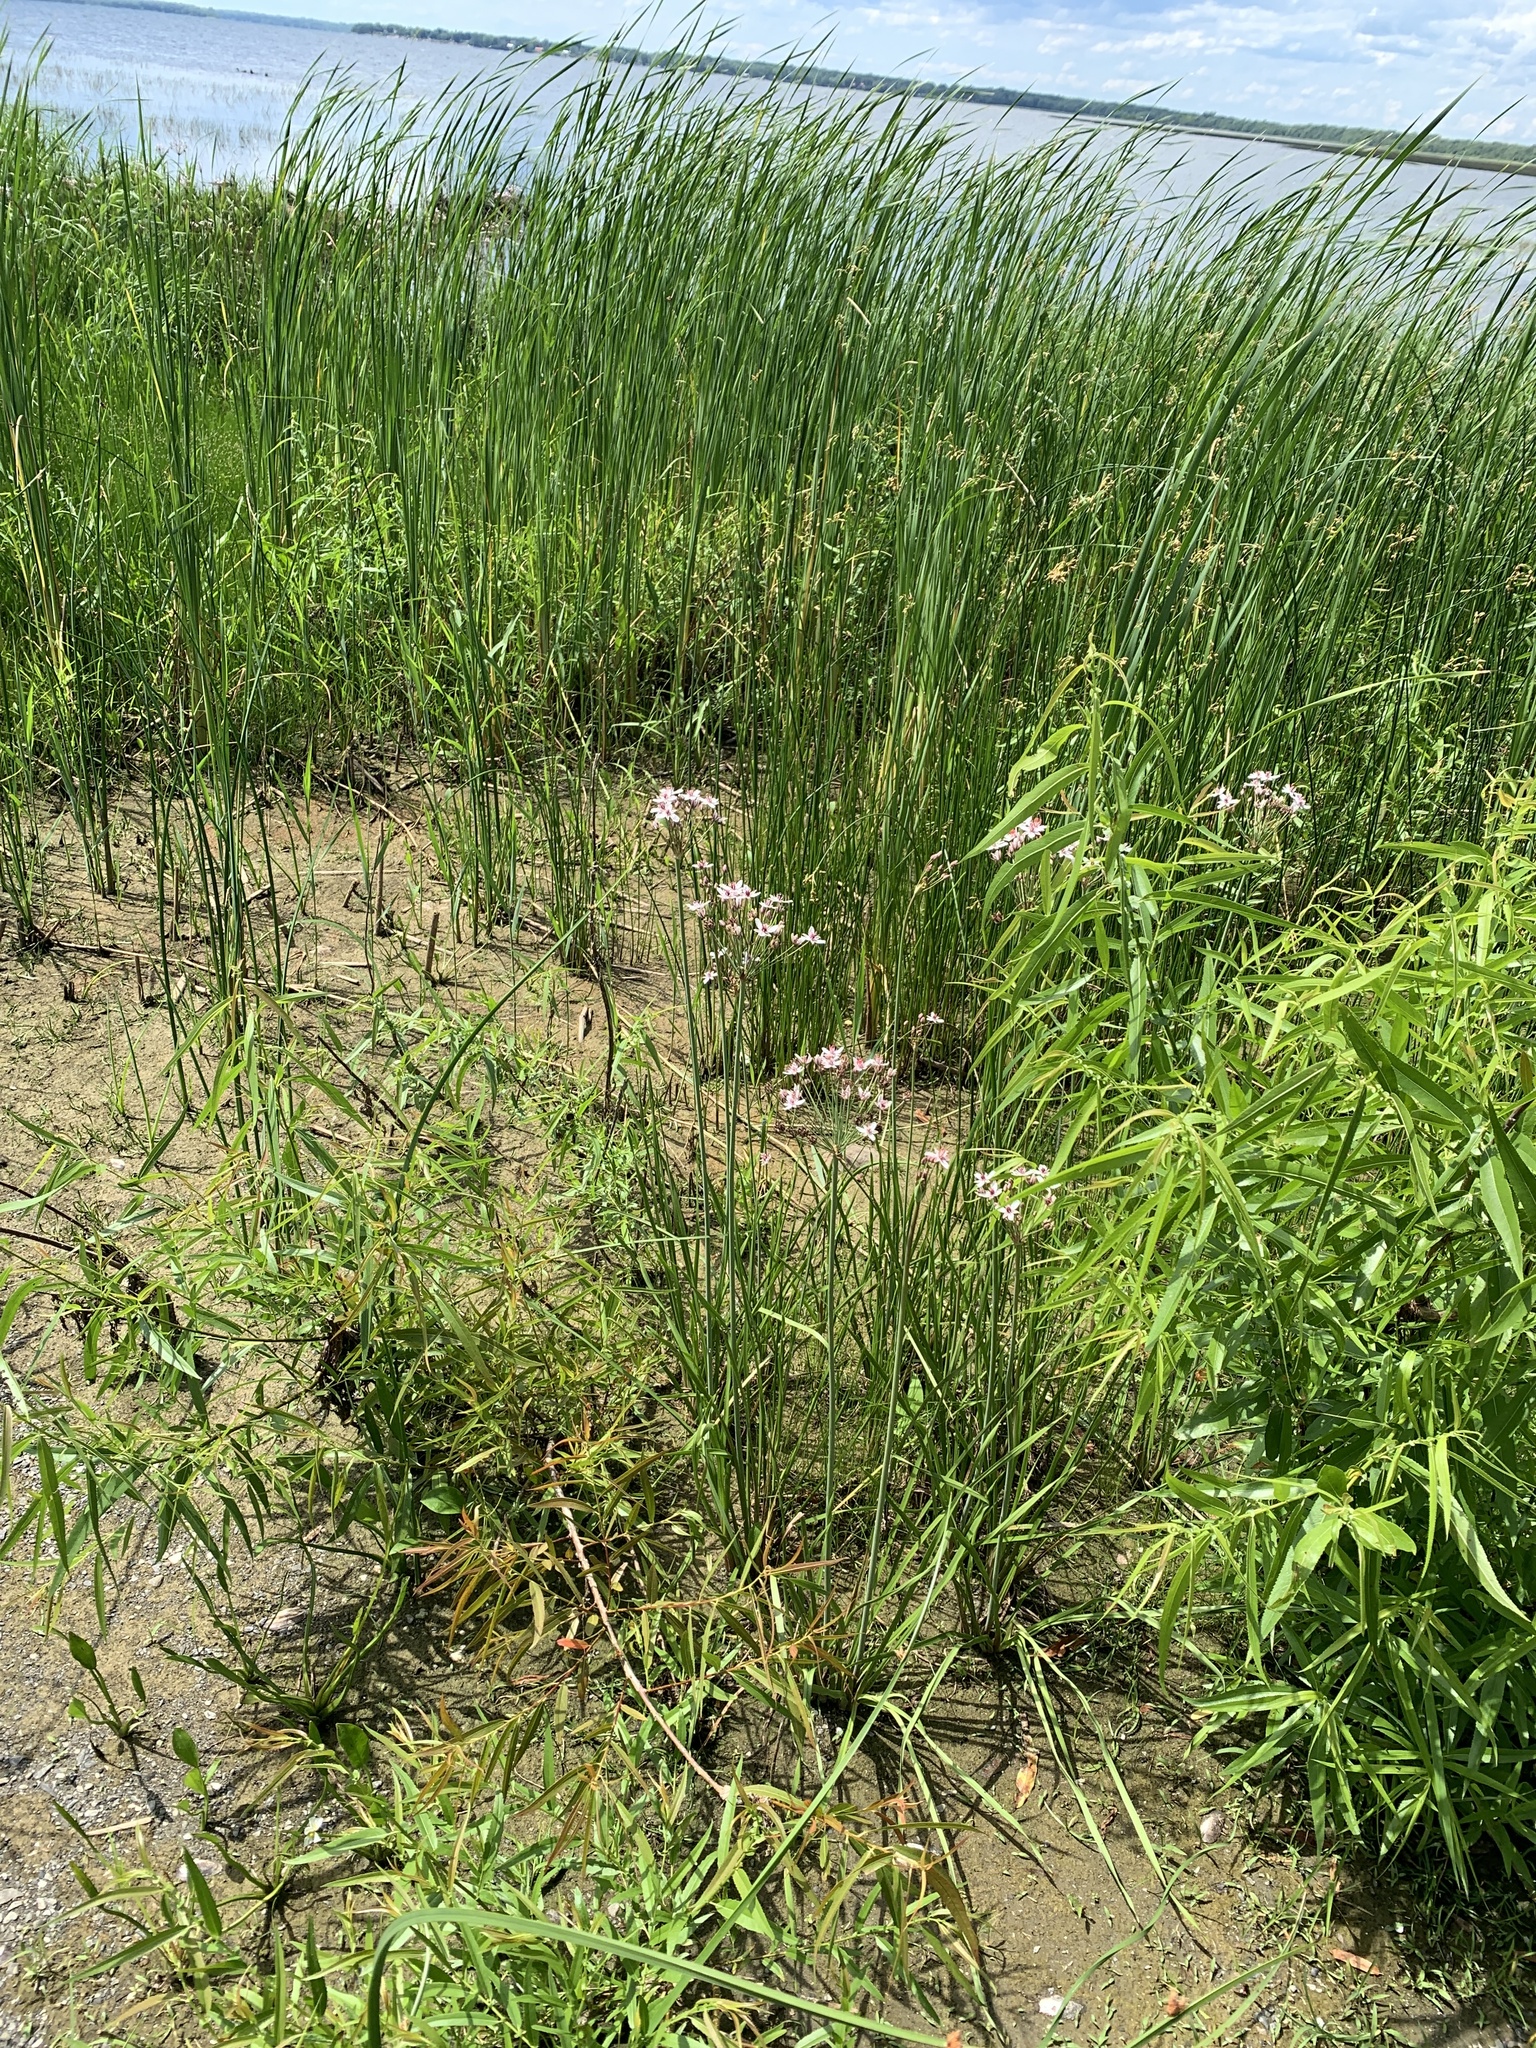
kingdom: Plantae
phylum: Tracheophyta
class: Liliopsida
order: Alismatales
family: Butomaceae
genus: Butomus
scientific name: Butomus umbellatus
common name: Flowering-rush
